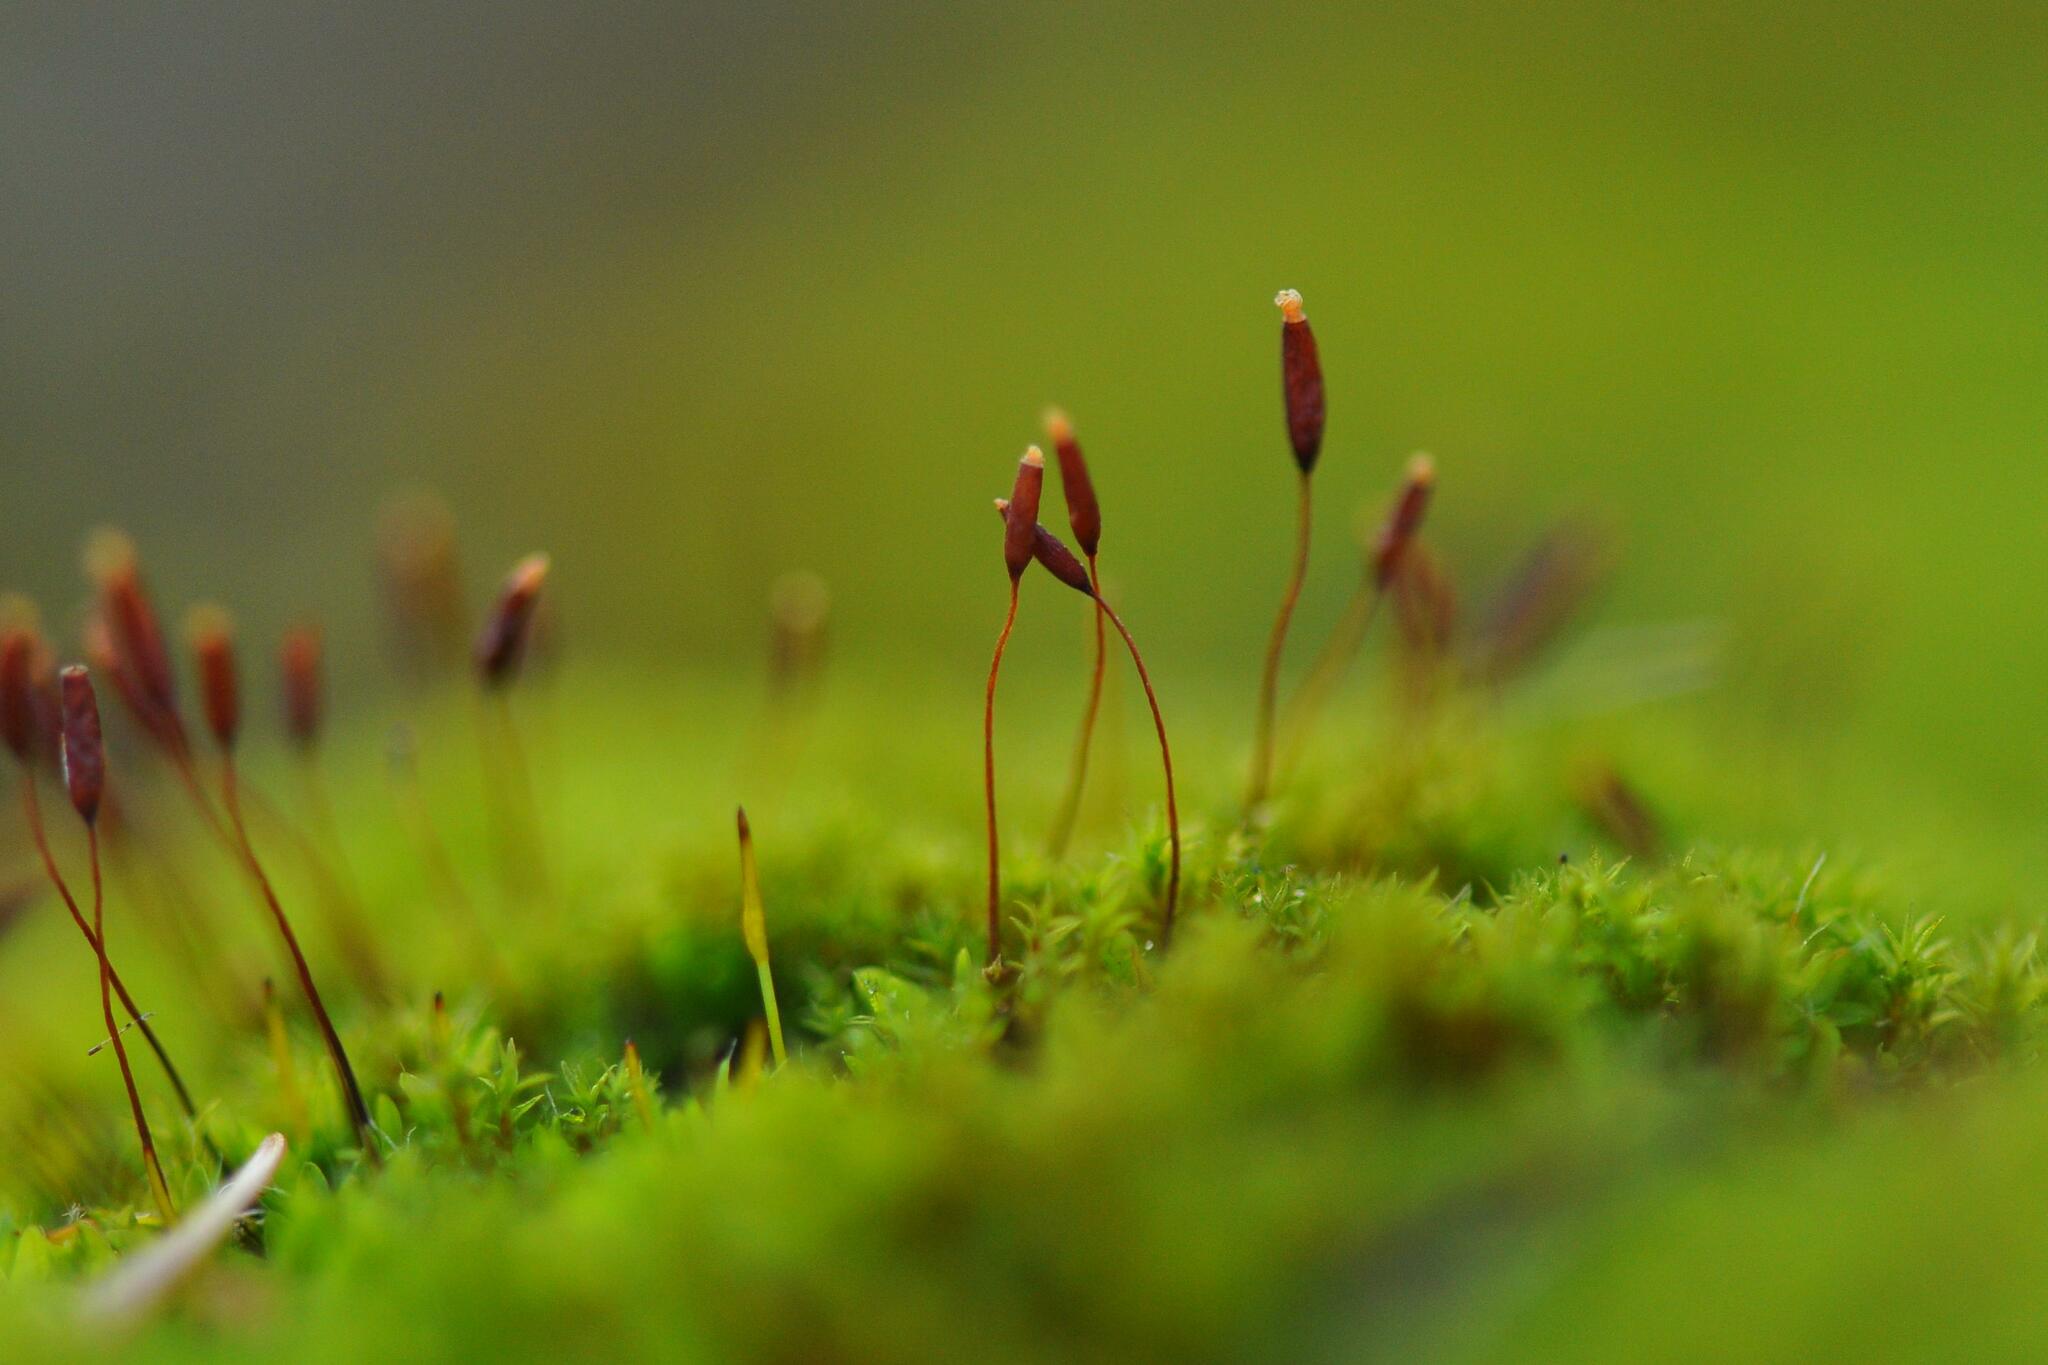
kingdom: Plantae
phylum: Bryophyta
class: Bryopsida
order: Pottiales
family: Pottiaceae
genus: Tortula
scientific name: Tortula muralis
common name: Wall screw-moss
